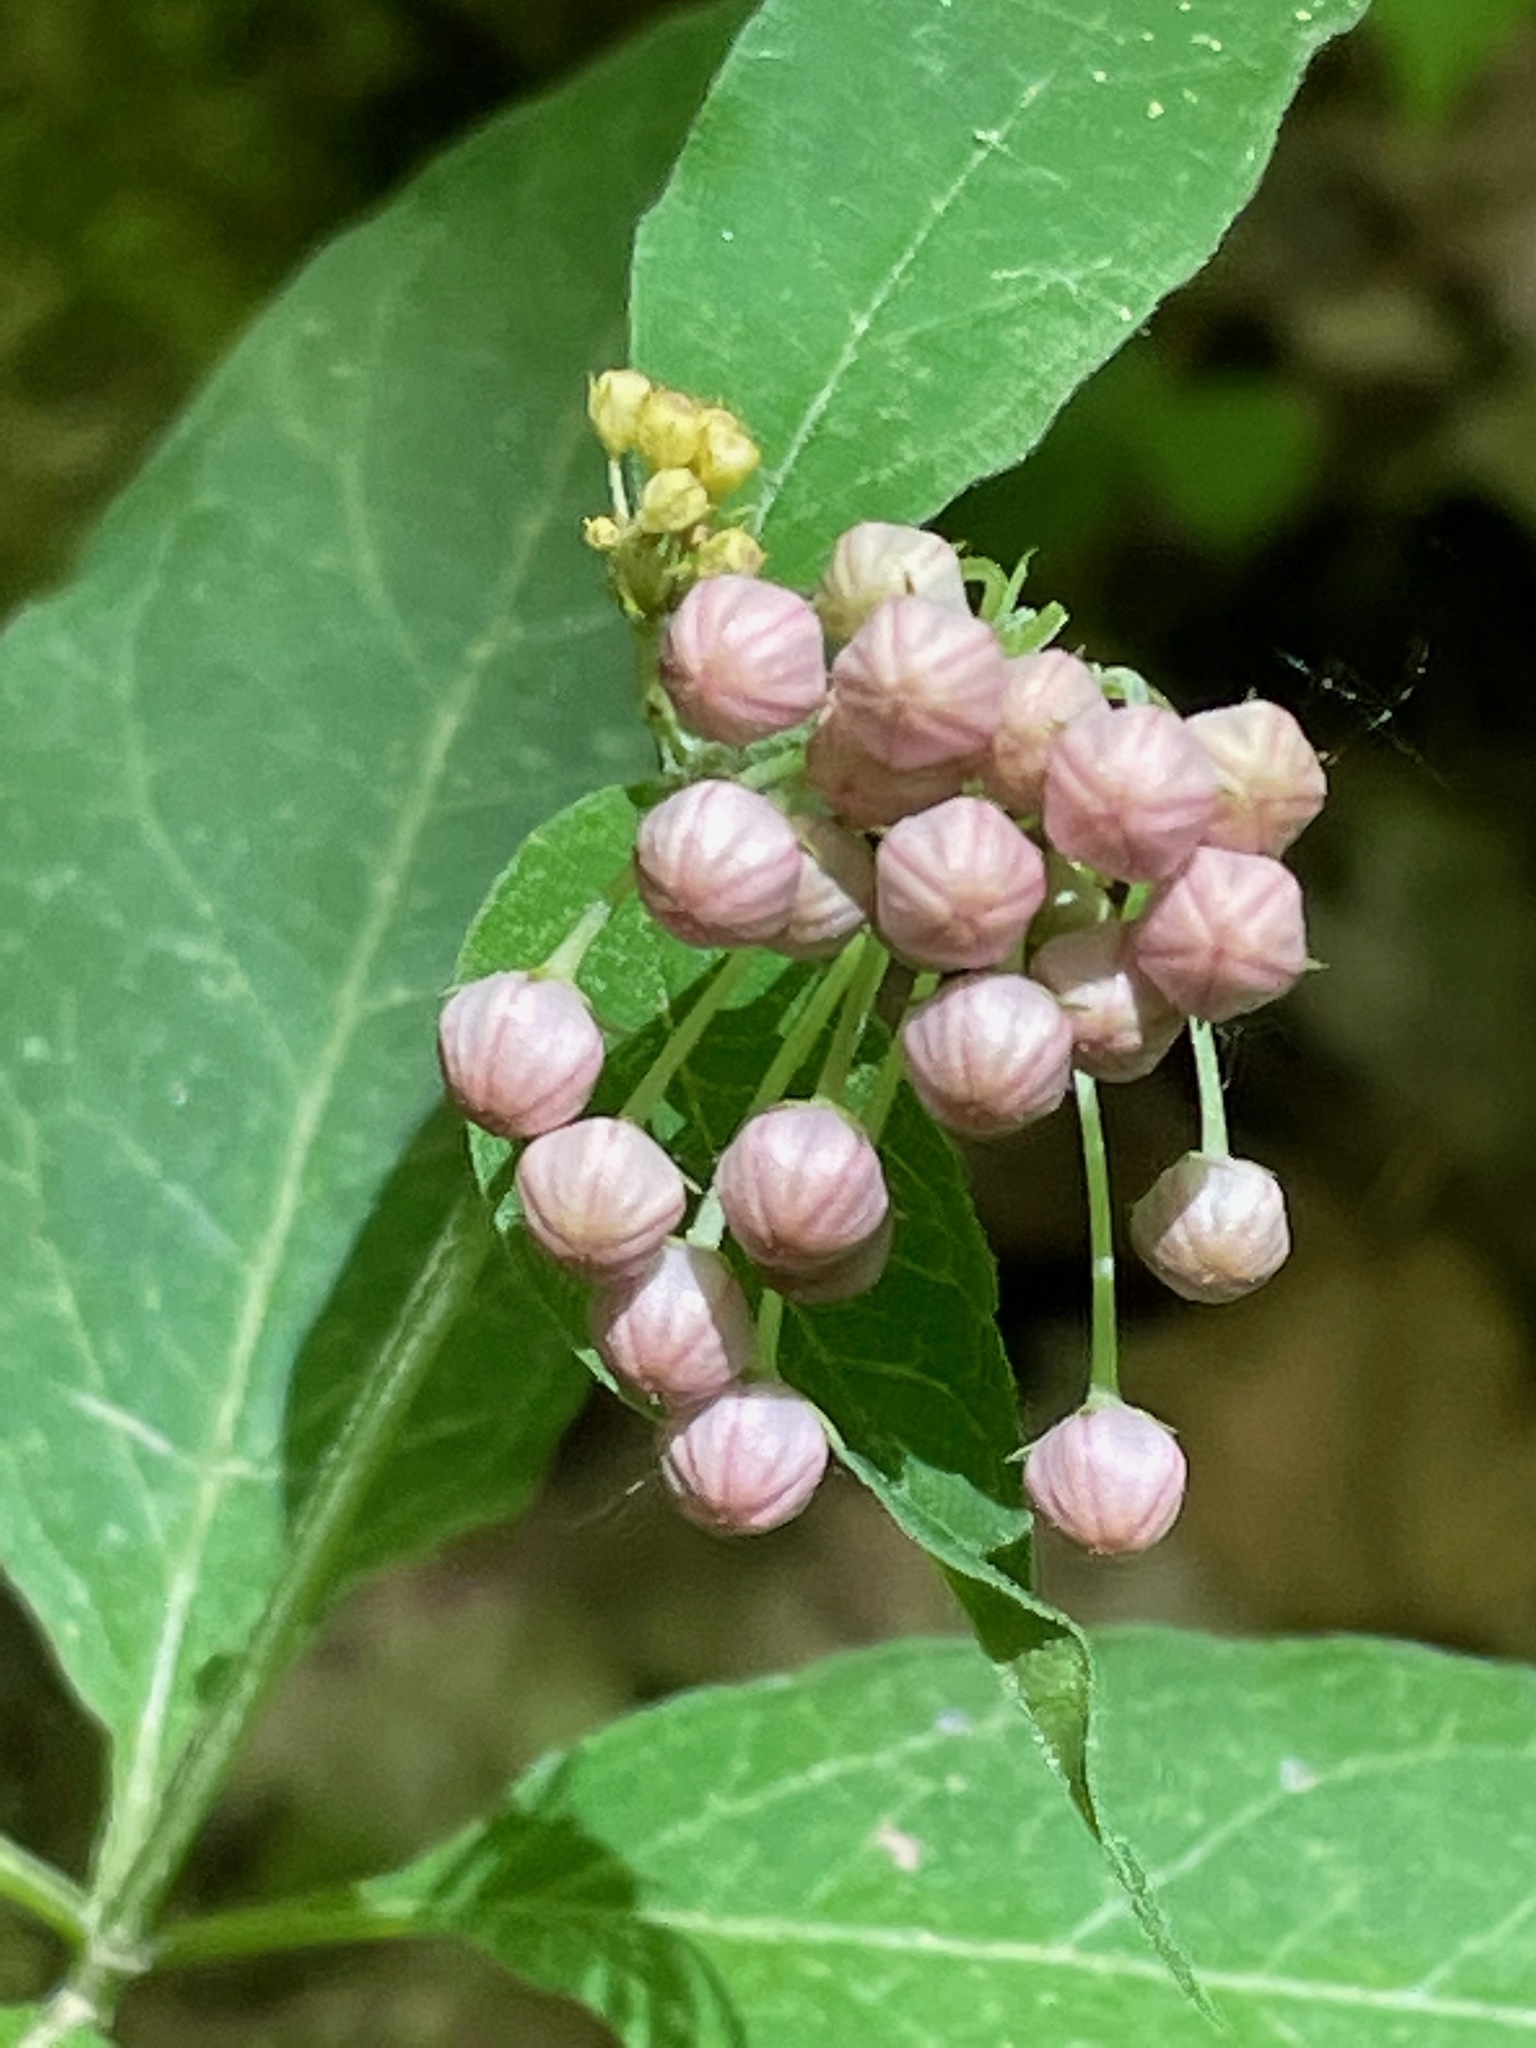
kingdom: Plantae
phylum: Tracheophyta
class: Magnoliopsida
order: Gentianales
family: Apocynaceae
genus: Asclepias
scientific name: Asclepias quadrifolia
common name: Whorled milkweed
